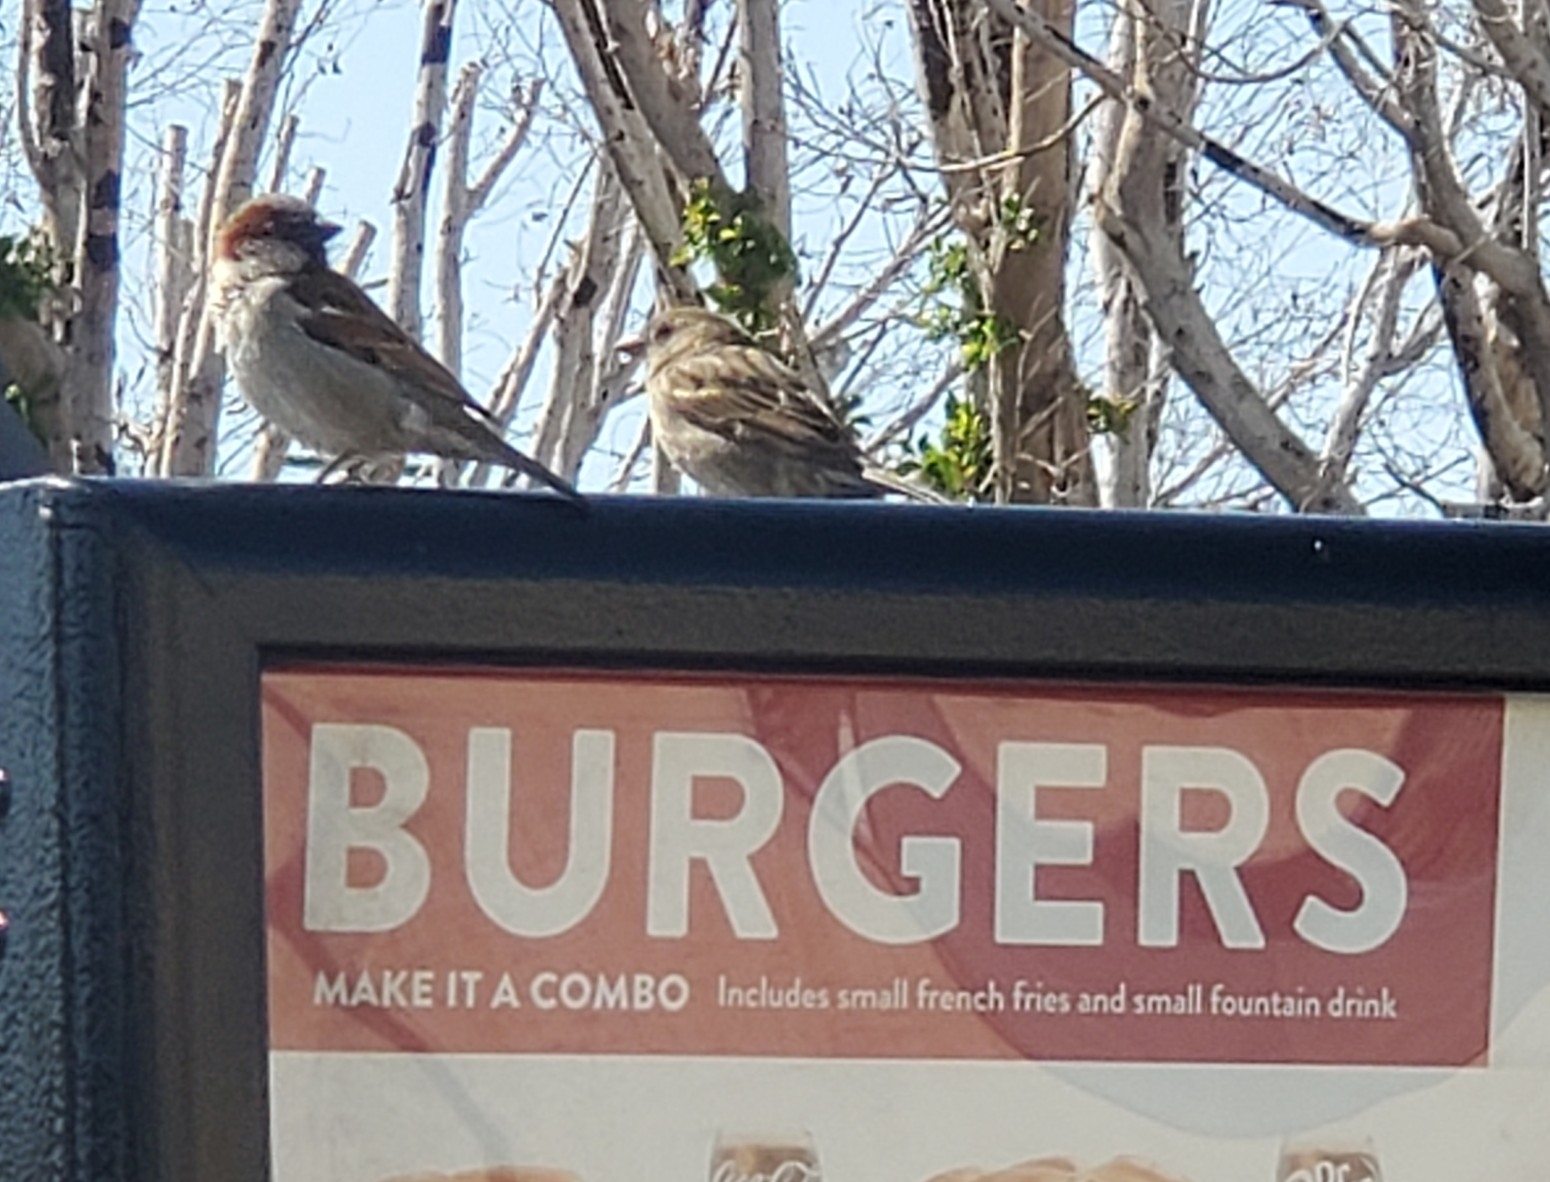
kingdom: Animalia
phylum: Chordata
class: Aves
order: Passeriformes
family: Passeridae
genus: Passer
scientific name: Passer domesticus
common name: House sparrow
